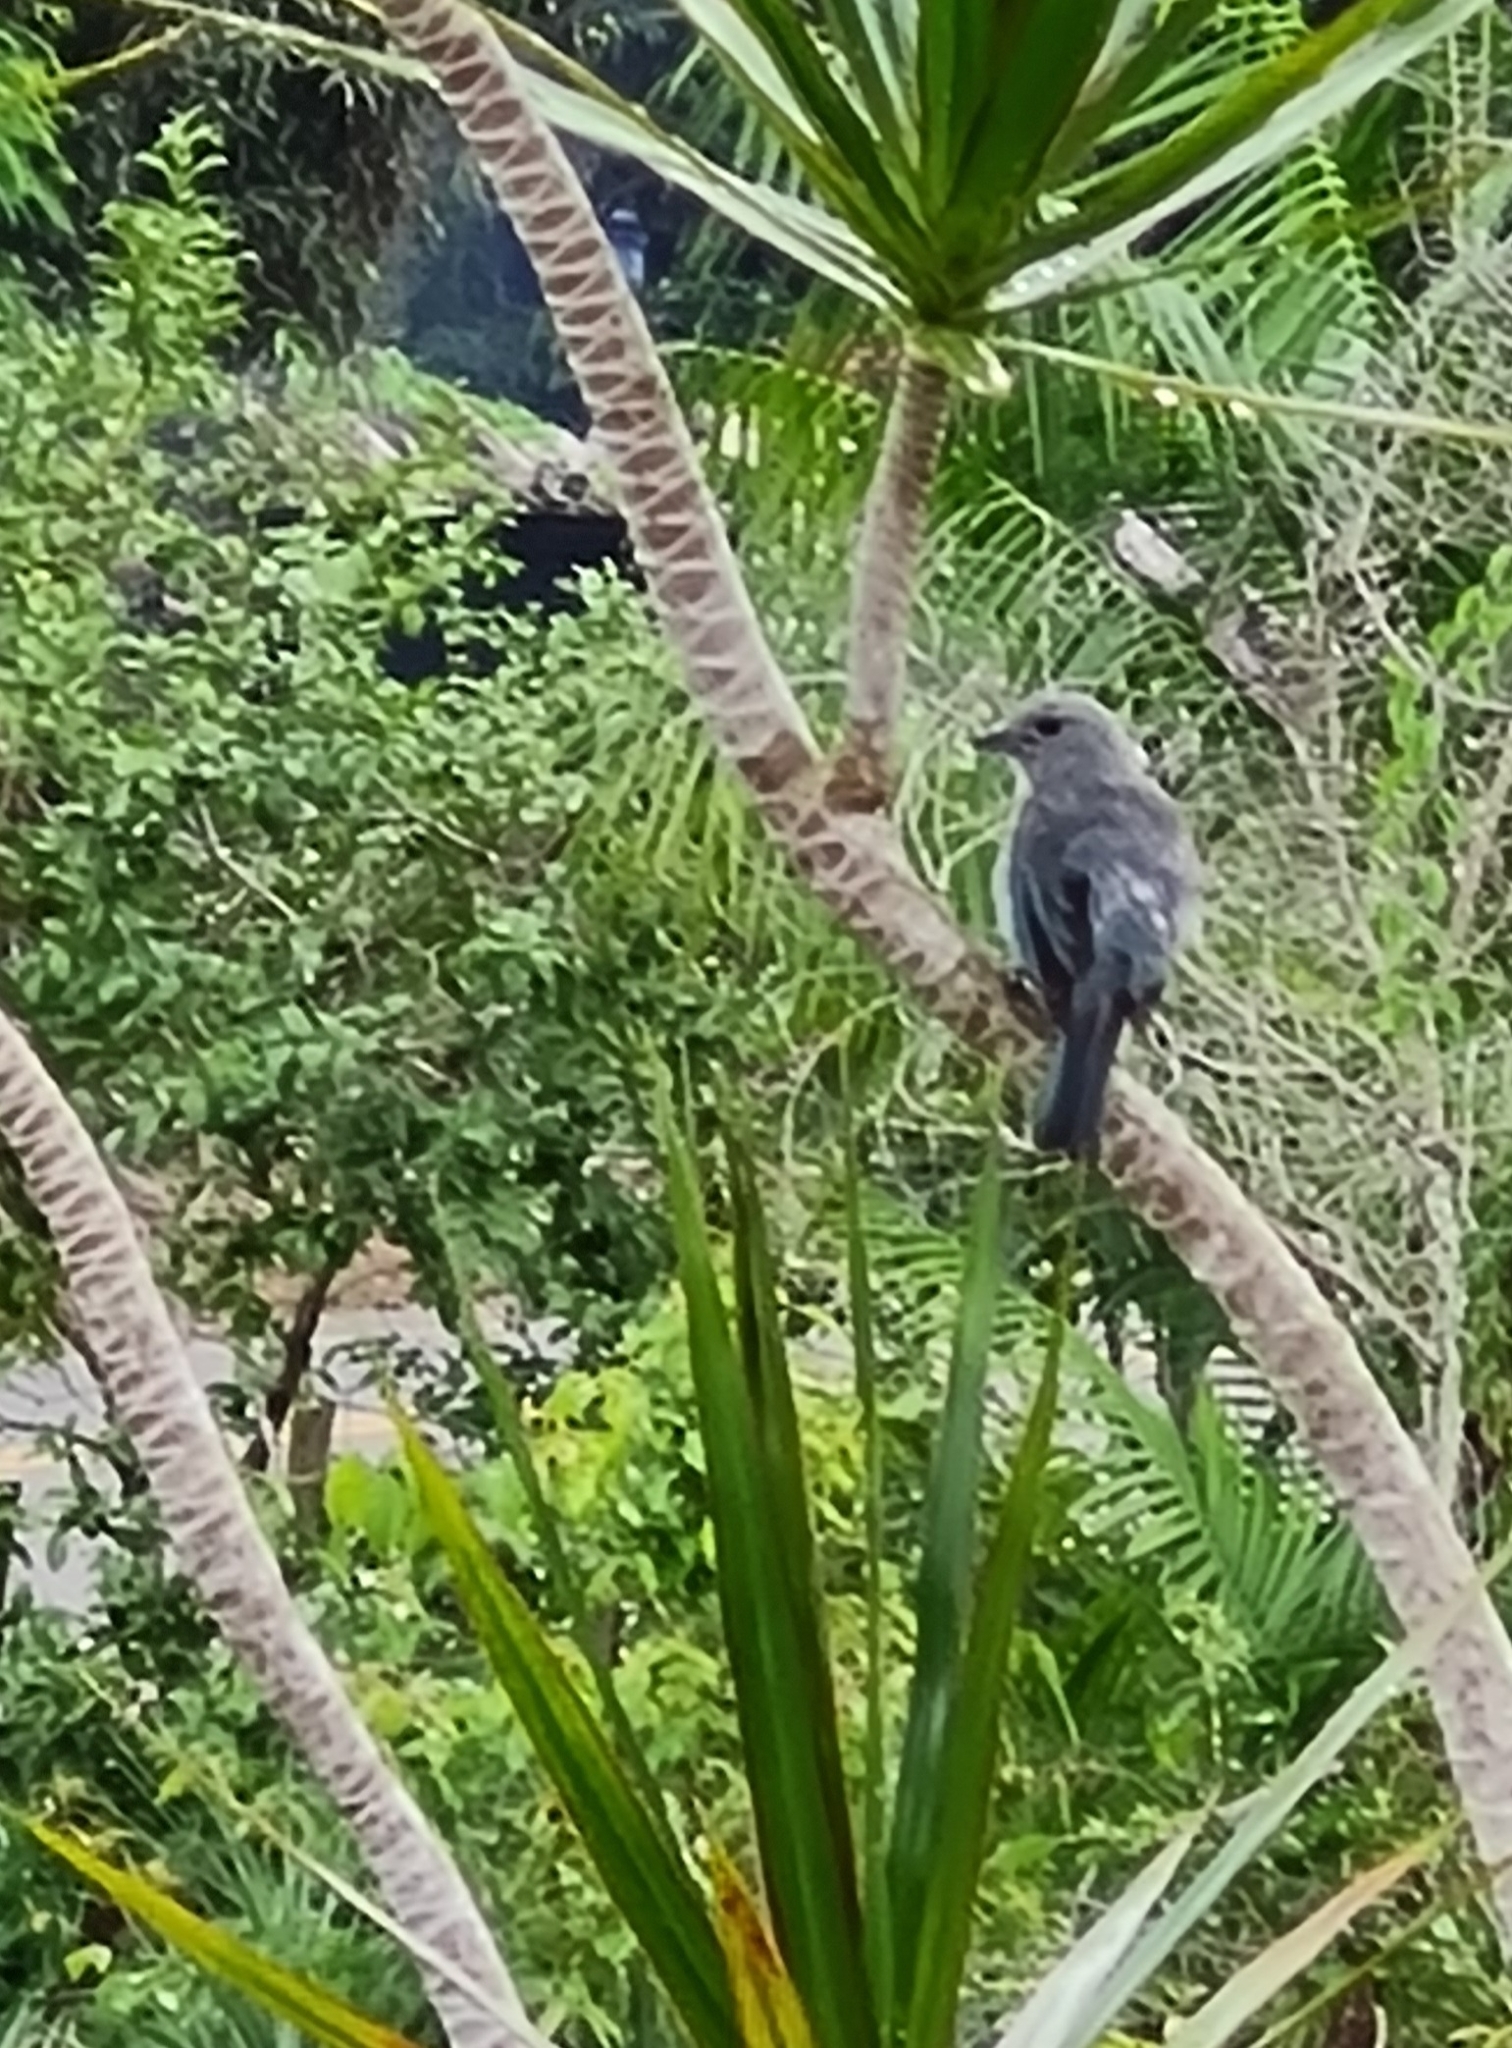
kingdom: Animalia
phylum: Chordata
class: Aves
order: Passeriformes
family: Thraupidae
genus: Thraupis
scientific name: Thraupis sayaca
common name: Sayaca tanager
